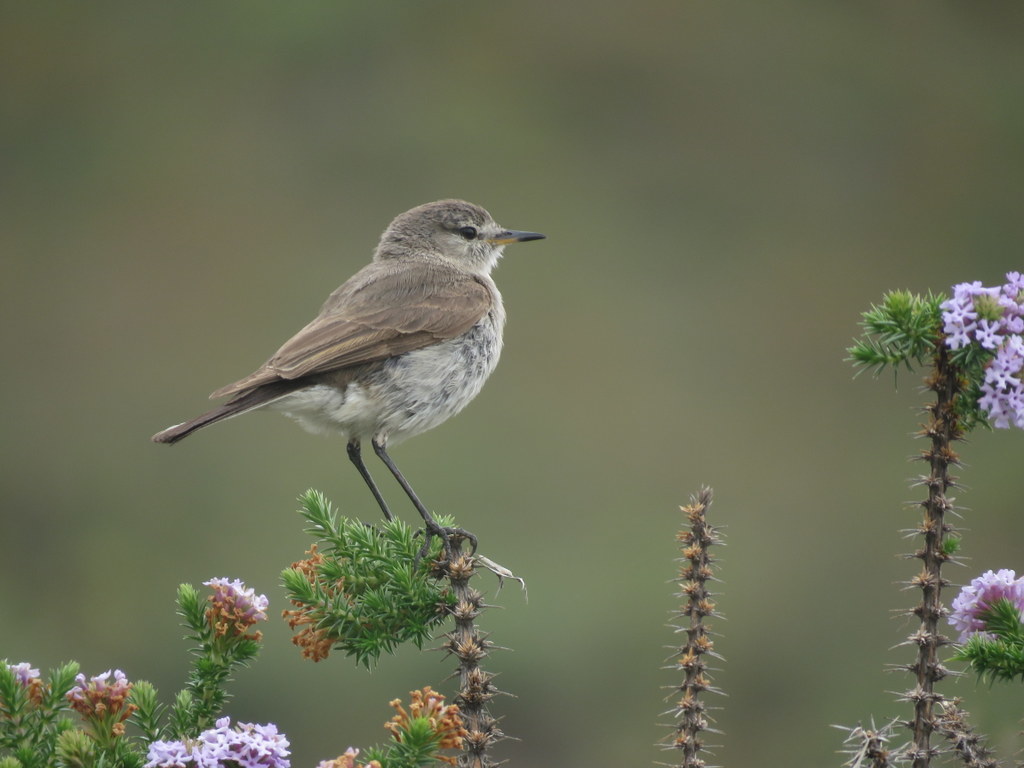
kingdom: Animalia
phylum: Chordata
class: Aves
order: Passeriformes
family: Tyrannidae
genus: Muscisaxicola
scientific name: Muscisaxicola maculirostris
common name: Spot-billed ground tyrant
